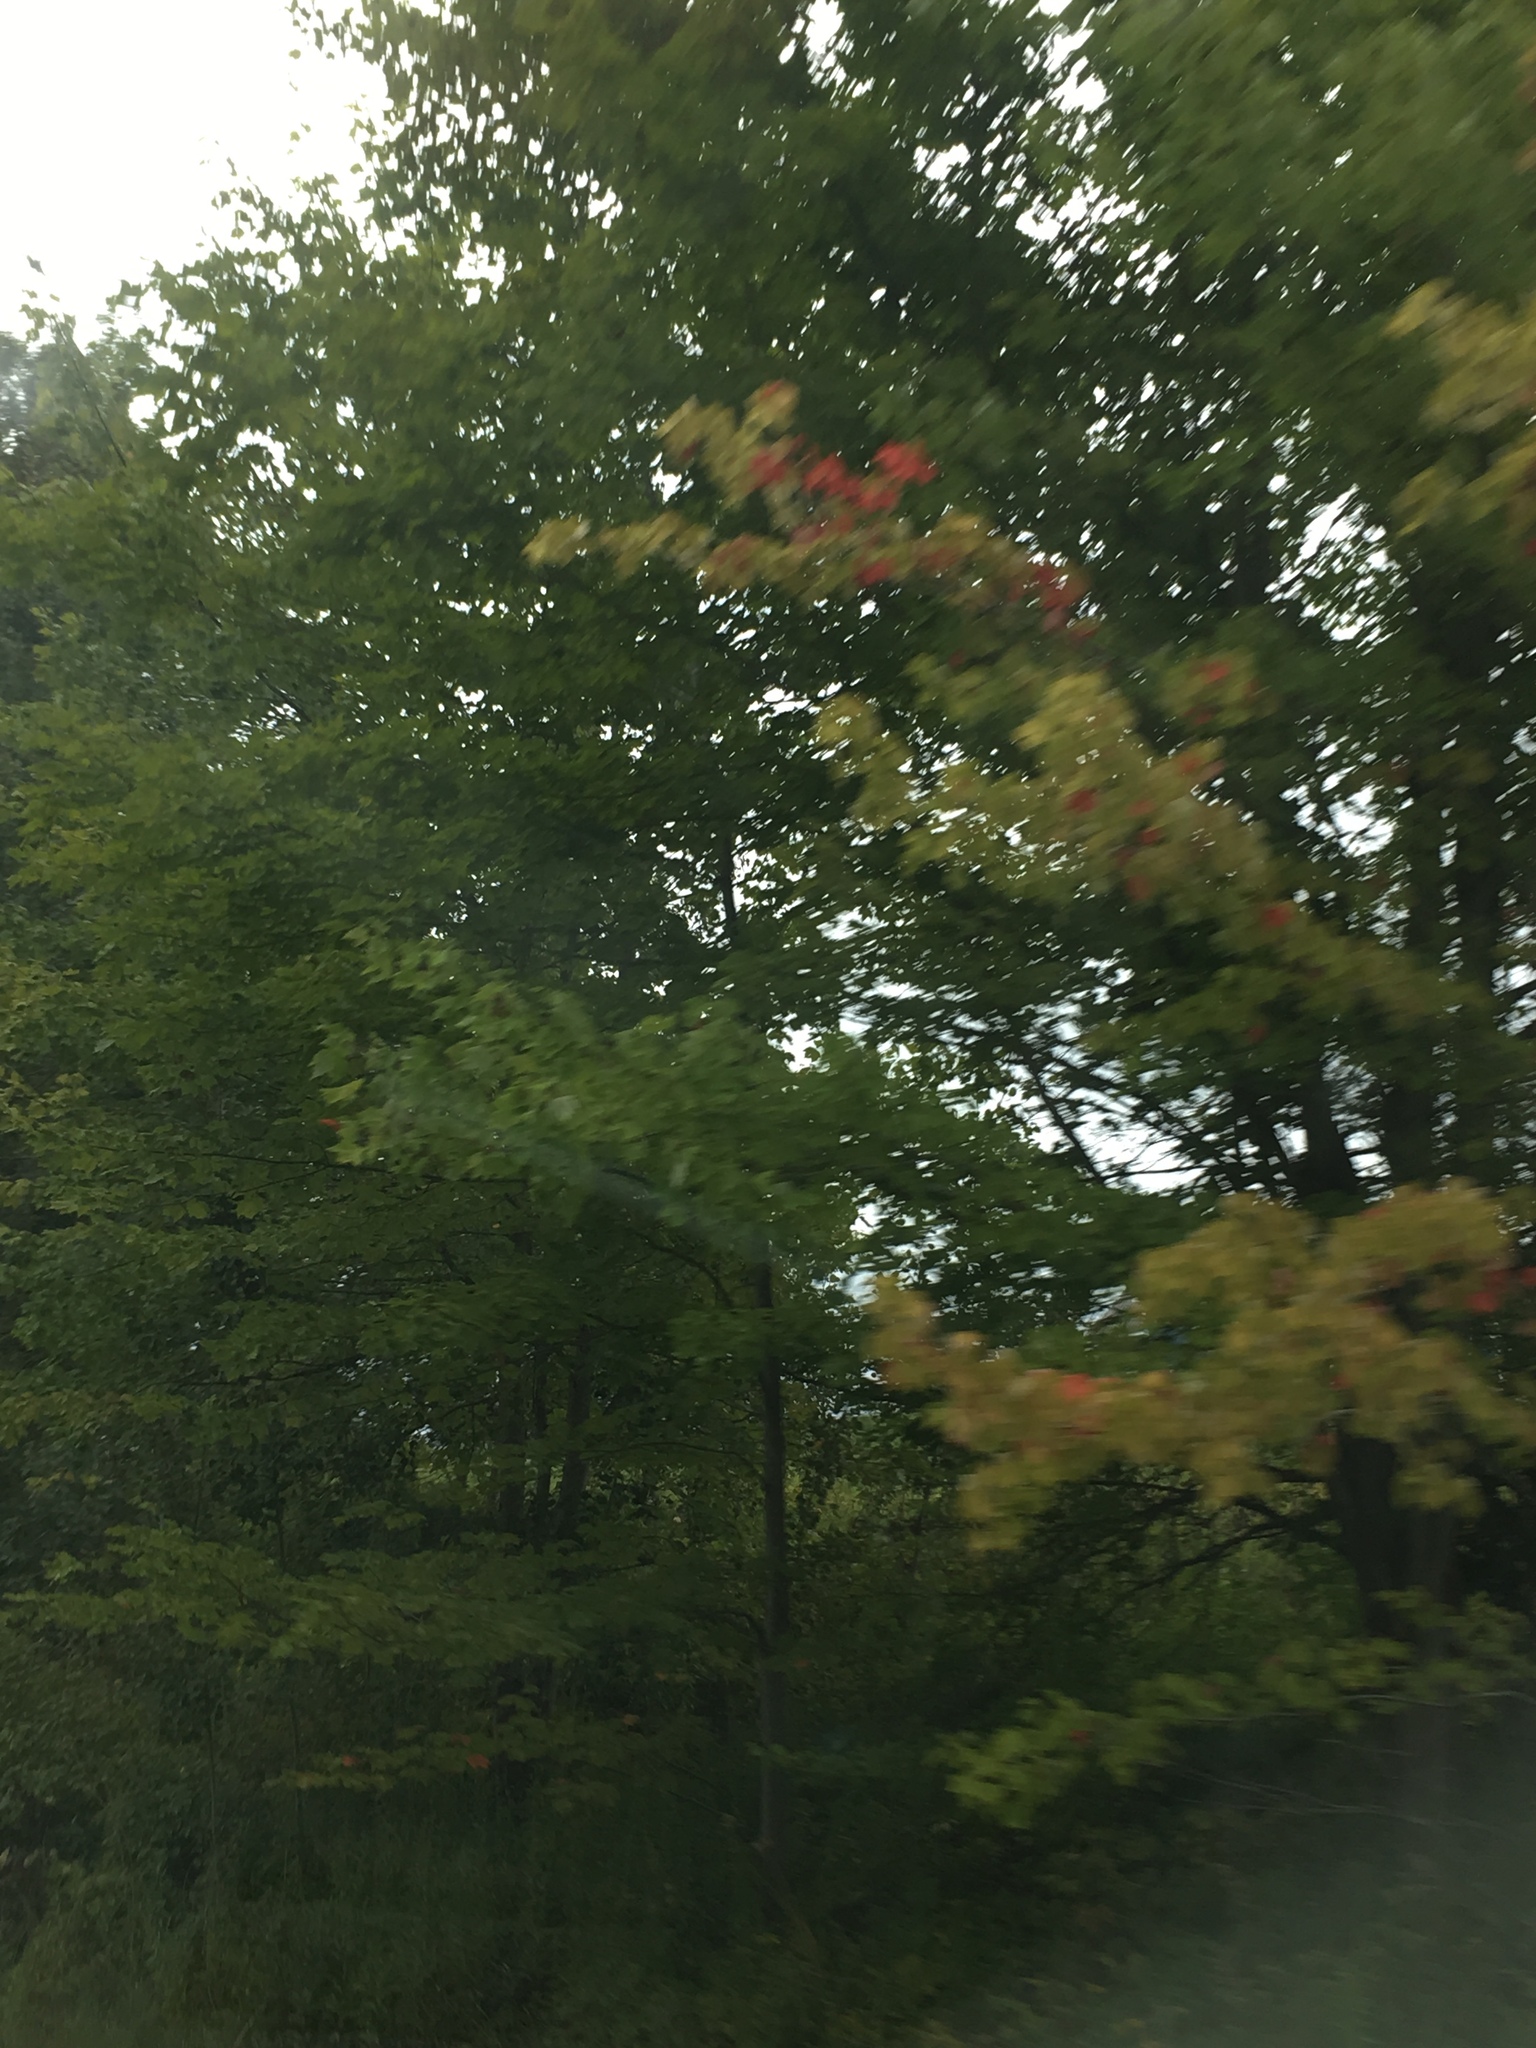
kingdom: Plantae
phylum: Tracheophyta
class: Magnoliopsida
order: Sapindales
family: Sapindaceae
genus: Acer
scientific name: Acer rubrum
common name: Red maple
